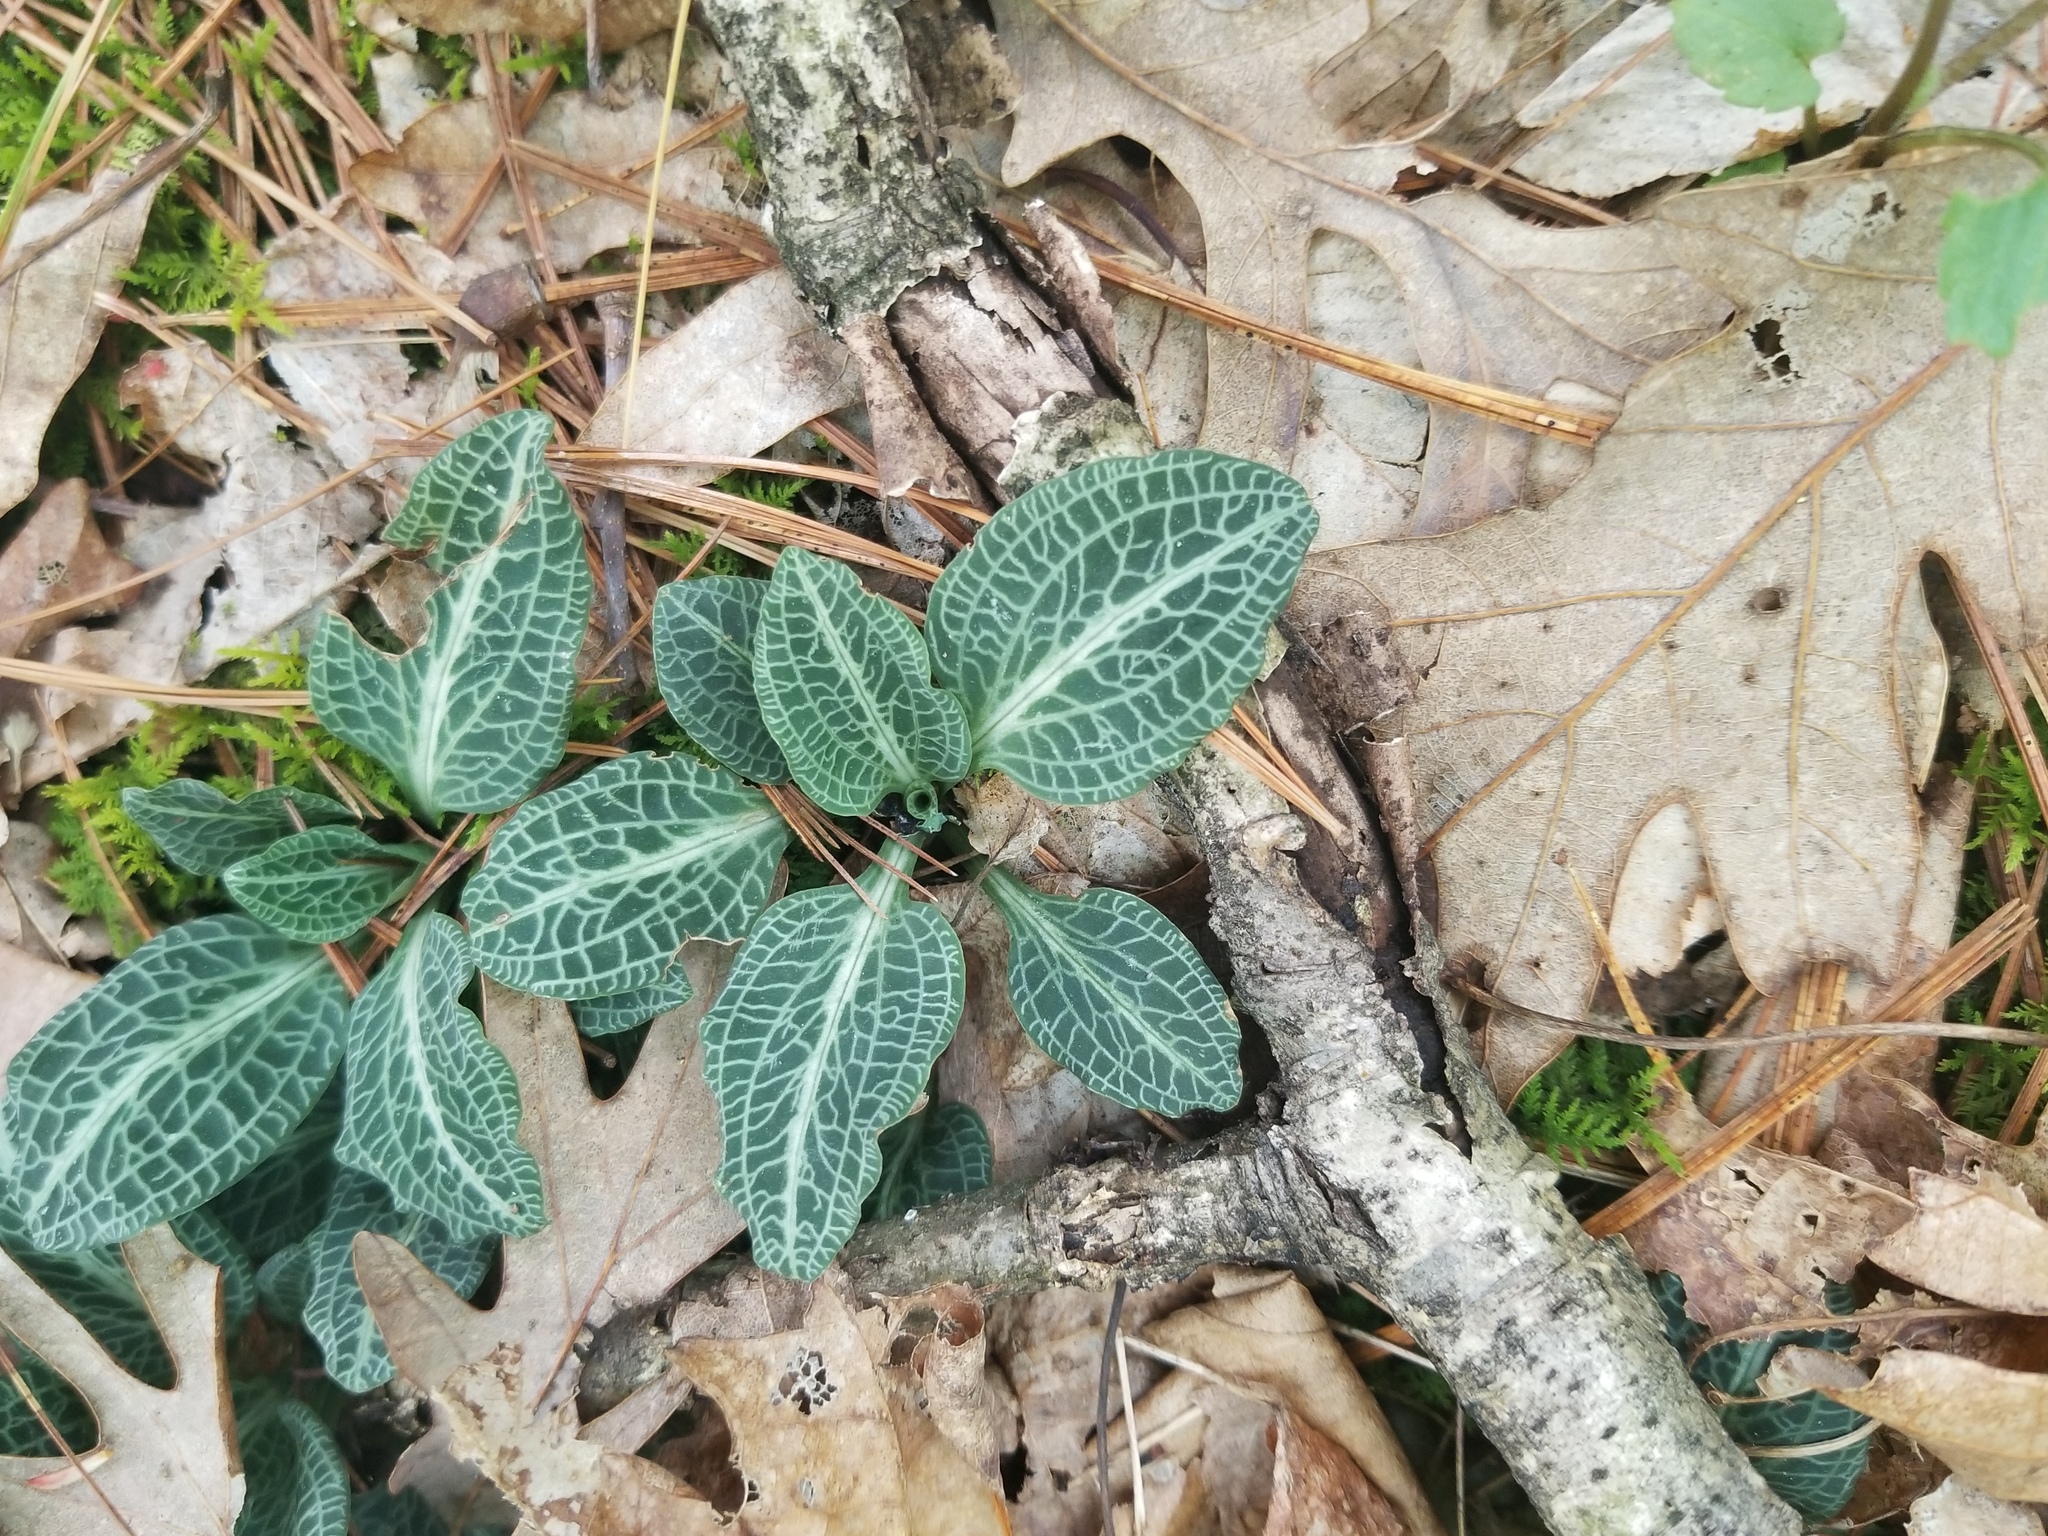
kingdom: Plantae
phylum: Tracheophyta
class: Liliopsida
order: Asparagales
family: Orchidaceae
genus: Goodyera
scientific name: Goodyera pubescens
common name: Downy rattlesnake-plantain
